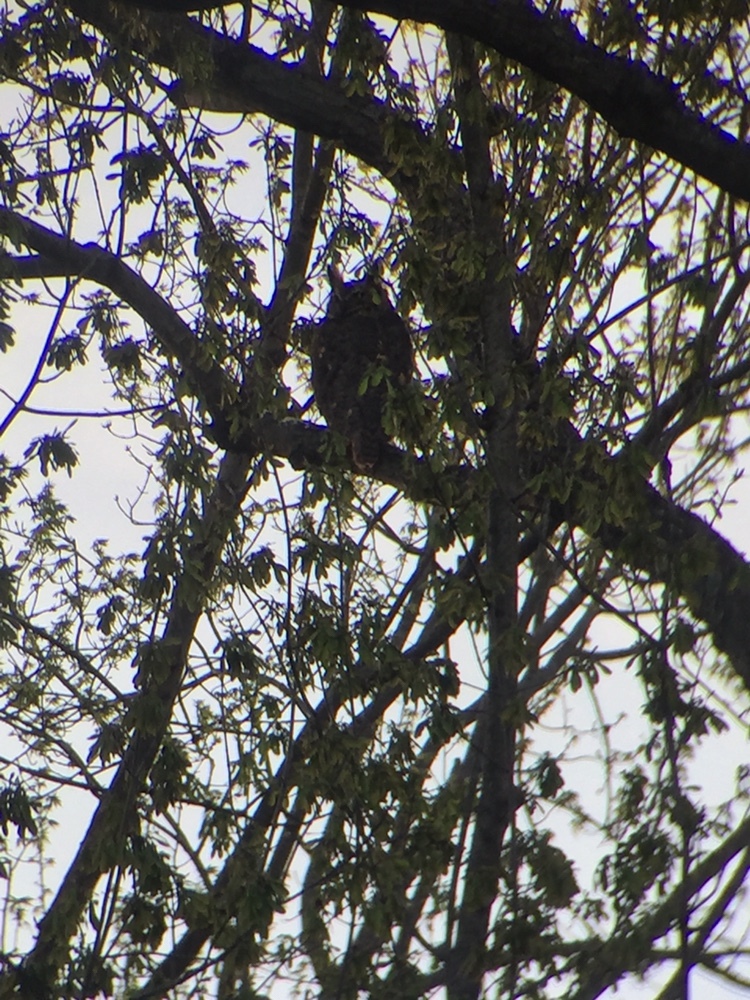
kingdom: Animalia
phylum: Chordata
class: Aves
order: Strigiformes
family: Strigidae
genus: Bubo
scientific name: Bubo virginianus
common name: Great horned owl
